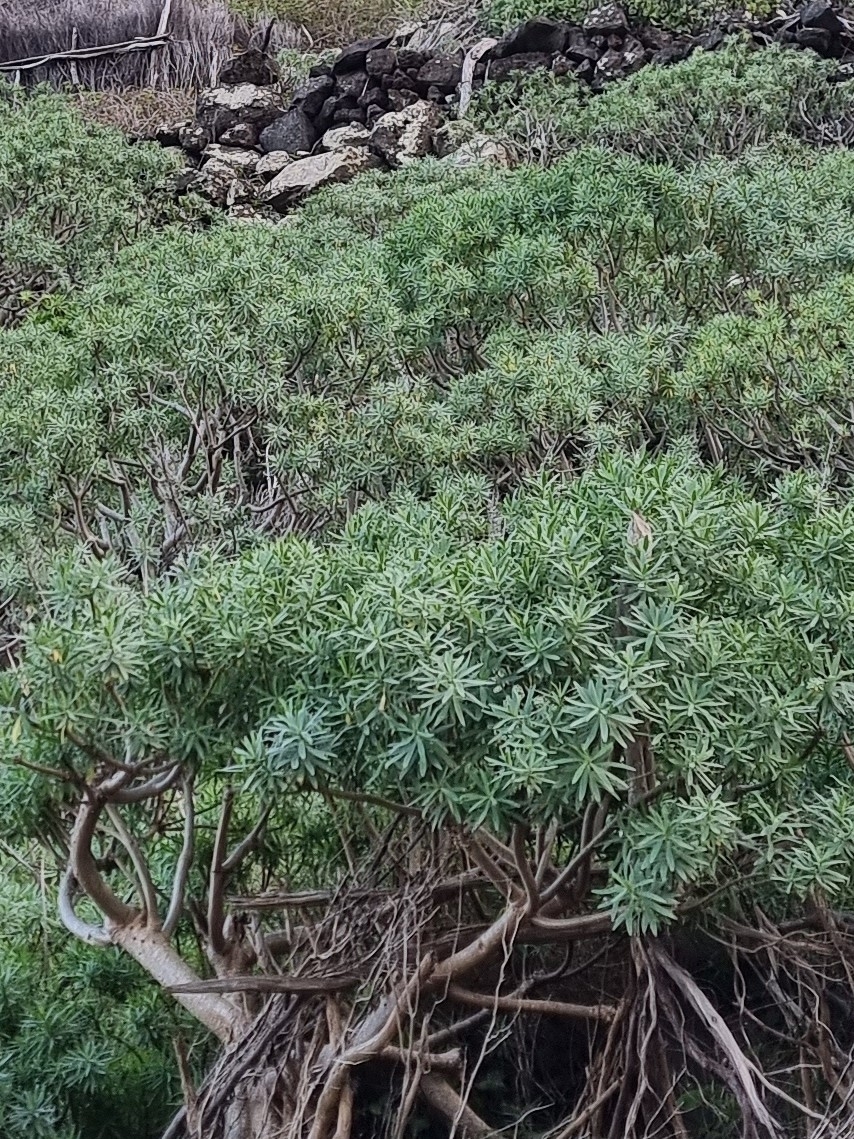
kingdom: Plantae
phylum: Tracheophyta
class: Magnoliopsida
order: Malpighiales
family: Euphorbiaceae
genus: Euphorbia
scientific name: Euphorbia piscatoria
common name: Fish-stunning spurge
